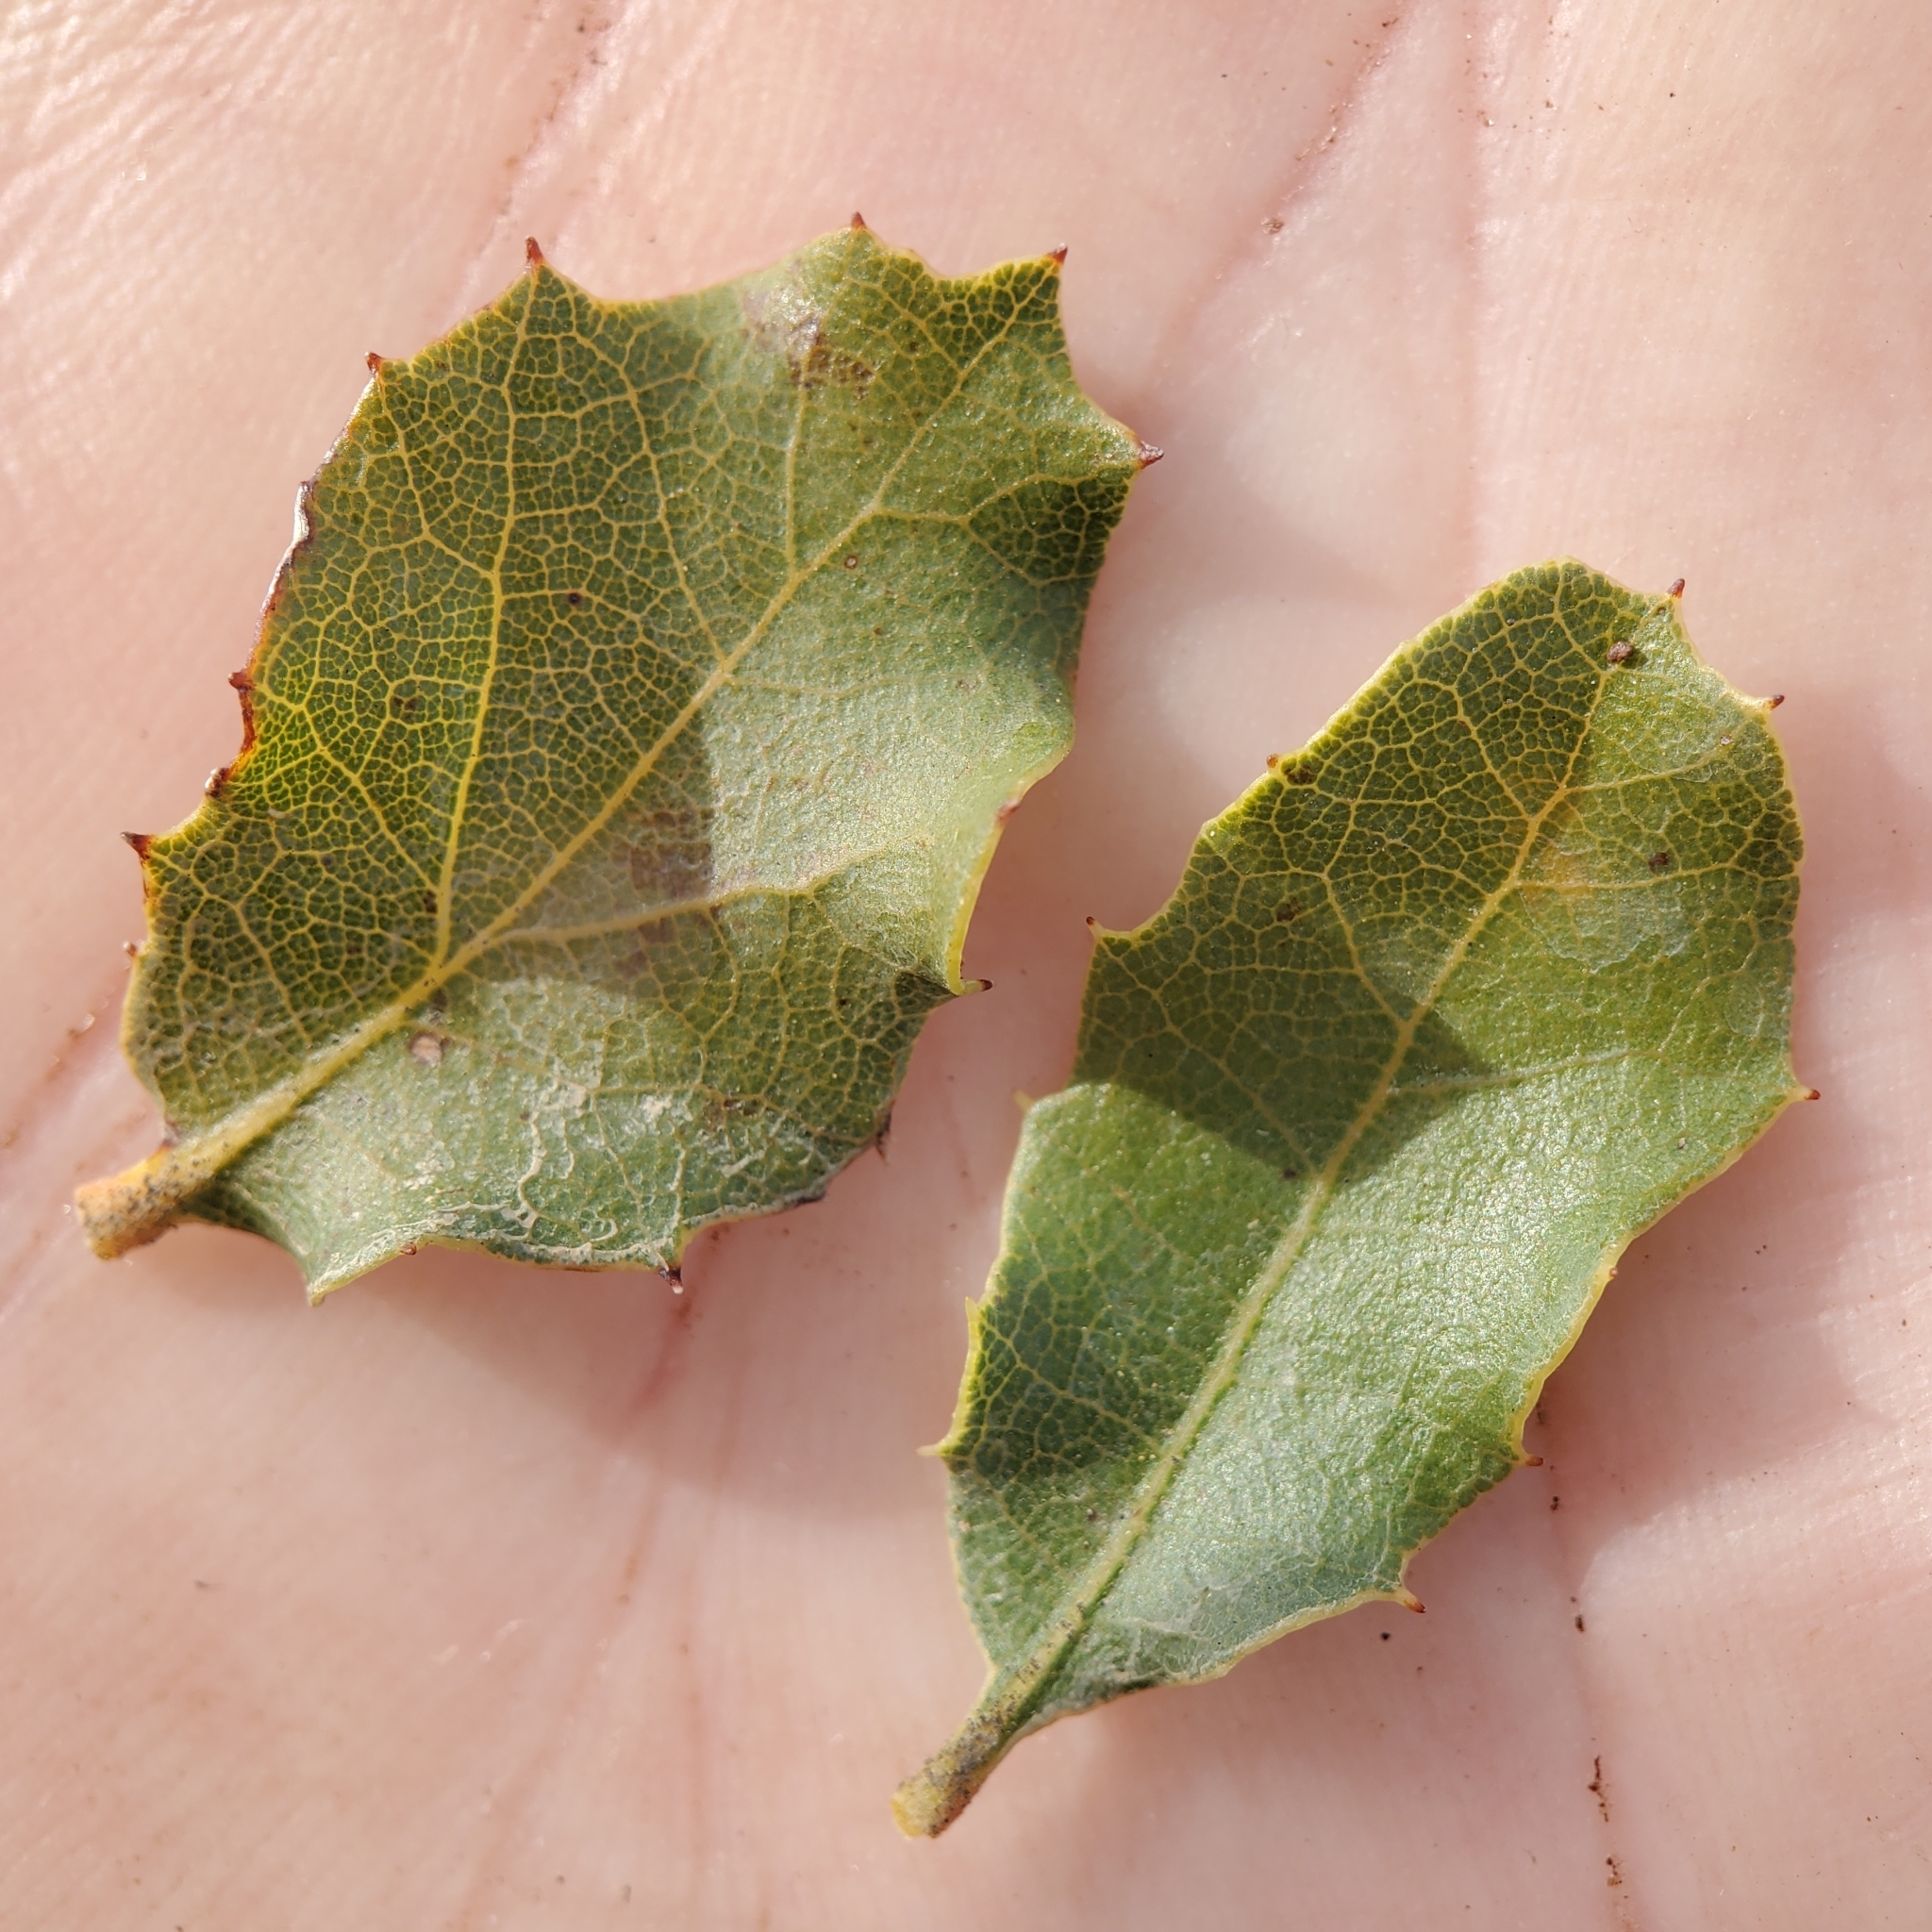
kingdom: Plantae
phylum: Tracheophyta
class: Magnoliopsida
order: Fagales
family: Fagaceae
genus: Quercus
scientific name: Quercus berberidifolia
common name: California scrub oak
